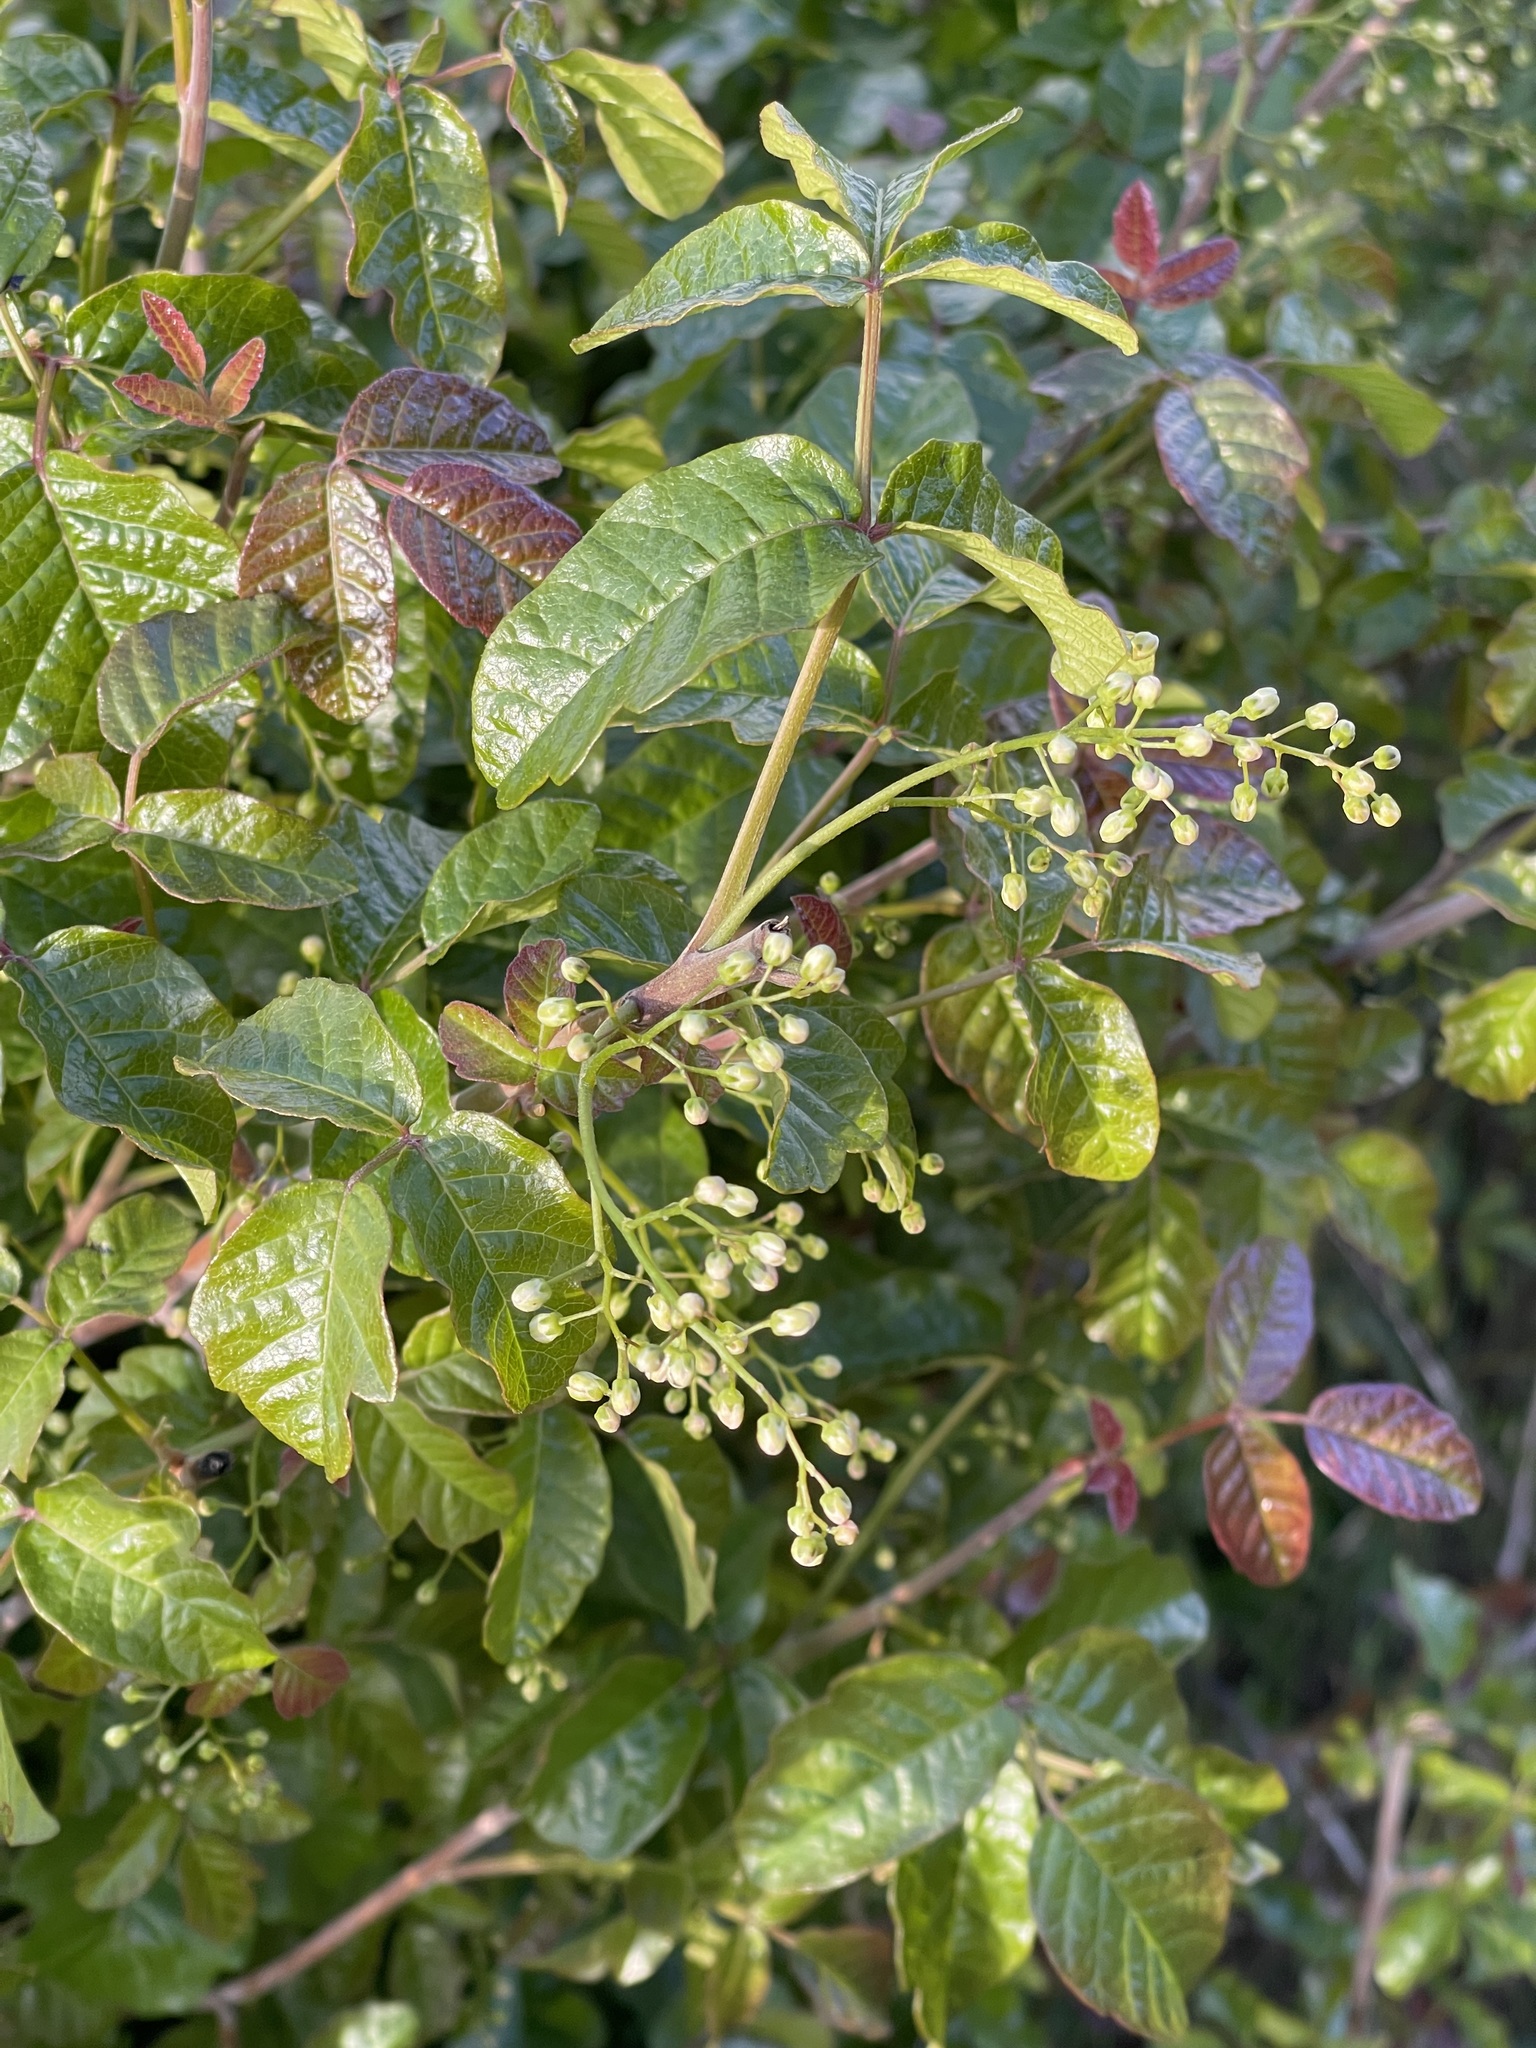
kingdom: Plantae
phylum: Tracheophyta
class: Magnoliopsida
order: Sapindales
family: Anacardiaceae
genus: Toxicodendron
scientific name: Toxicodendron diversilobum
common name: Pacific poison-oak
